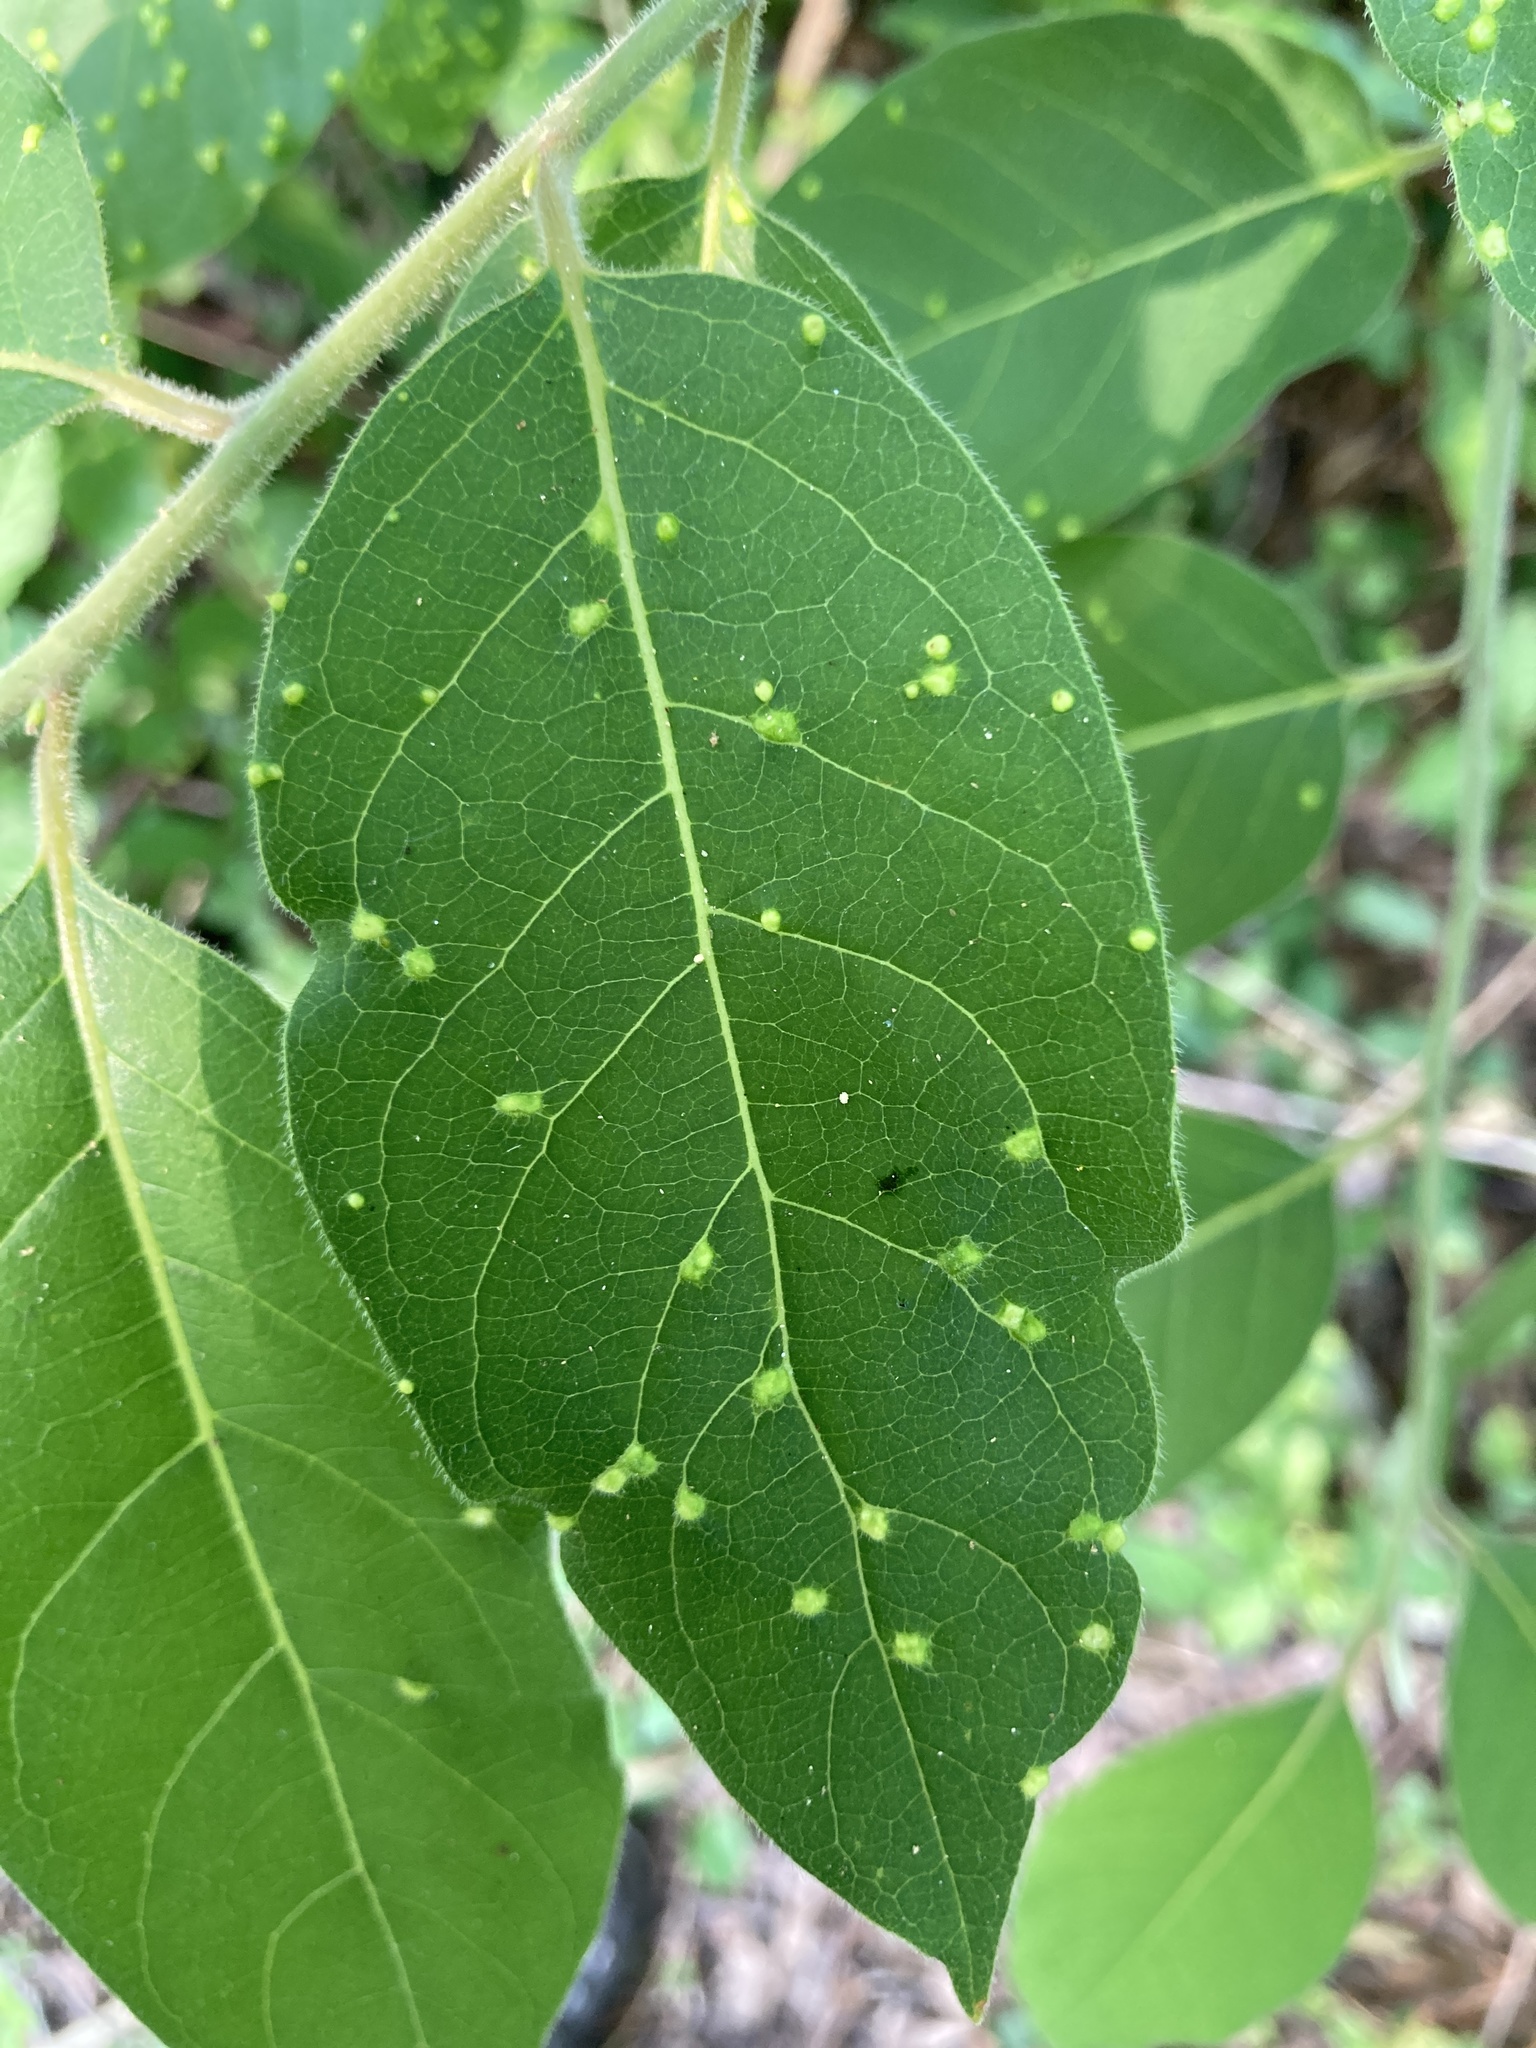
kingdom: Animalia
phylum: Arthropoda
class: Arachnida
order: Trombidiformes
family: Eriophyidae
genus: Aceria
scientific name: Aceria
